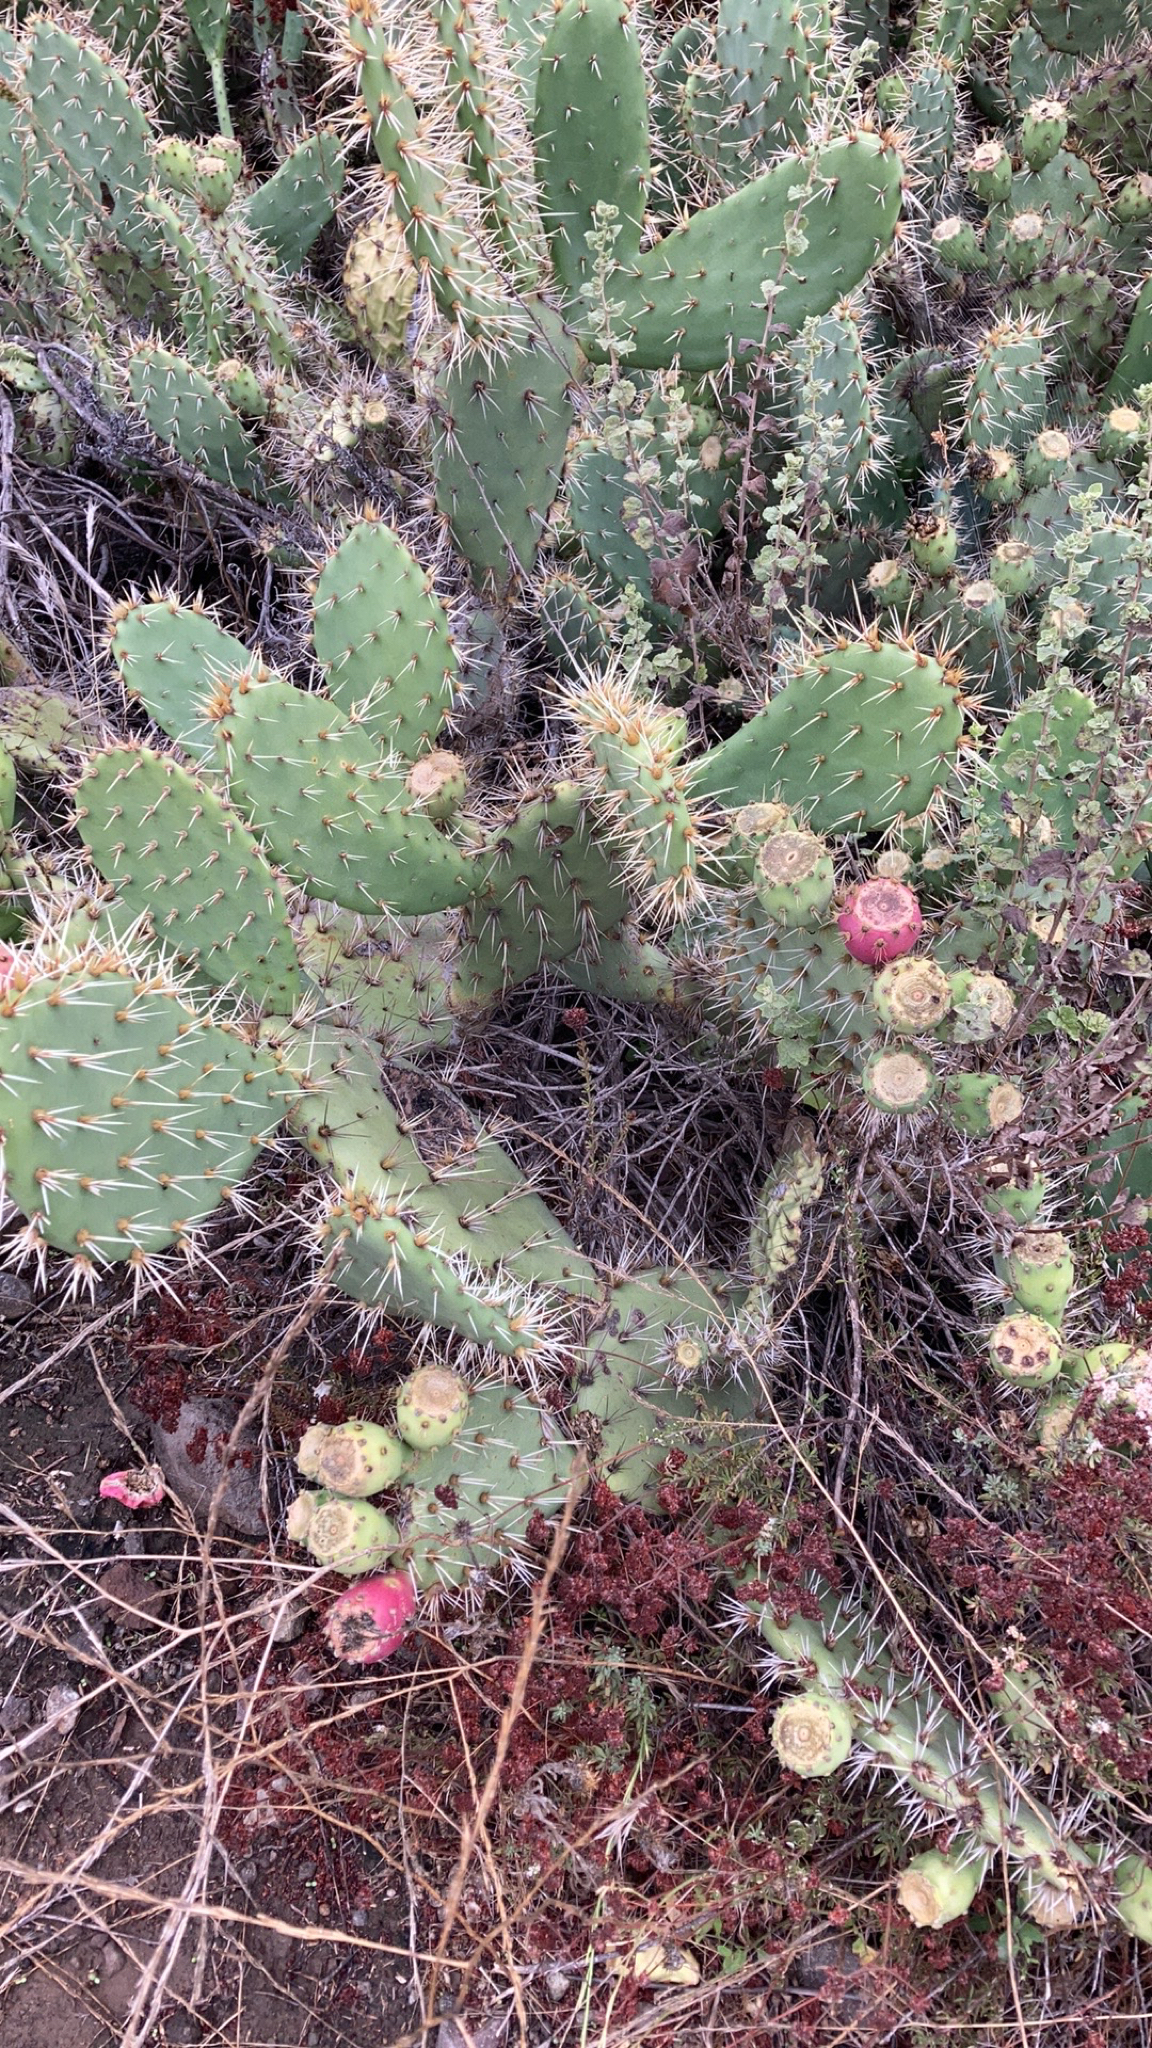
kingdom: Plantae
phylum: Tracheophyta
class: Magnoliopsida
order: Caryophyllales
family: Cactaceae
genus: Opuntia
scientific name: Opuntia littoralis
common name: Coastal prickly-pear
